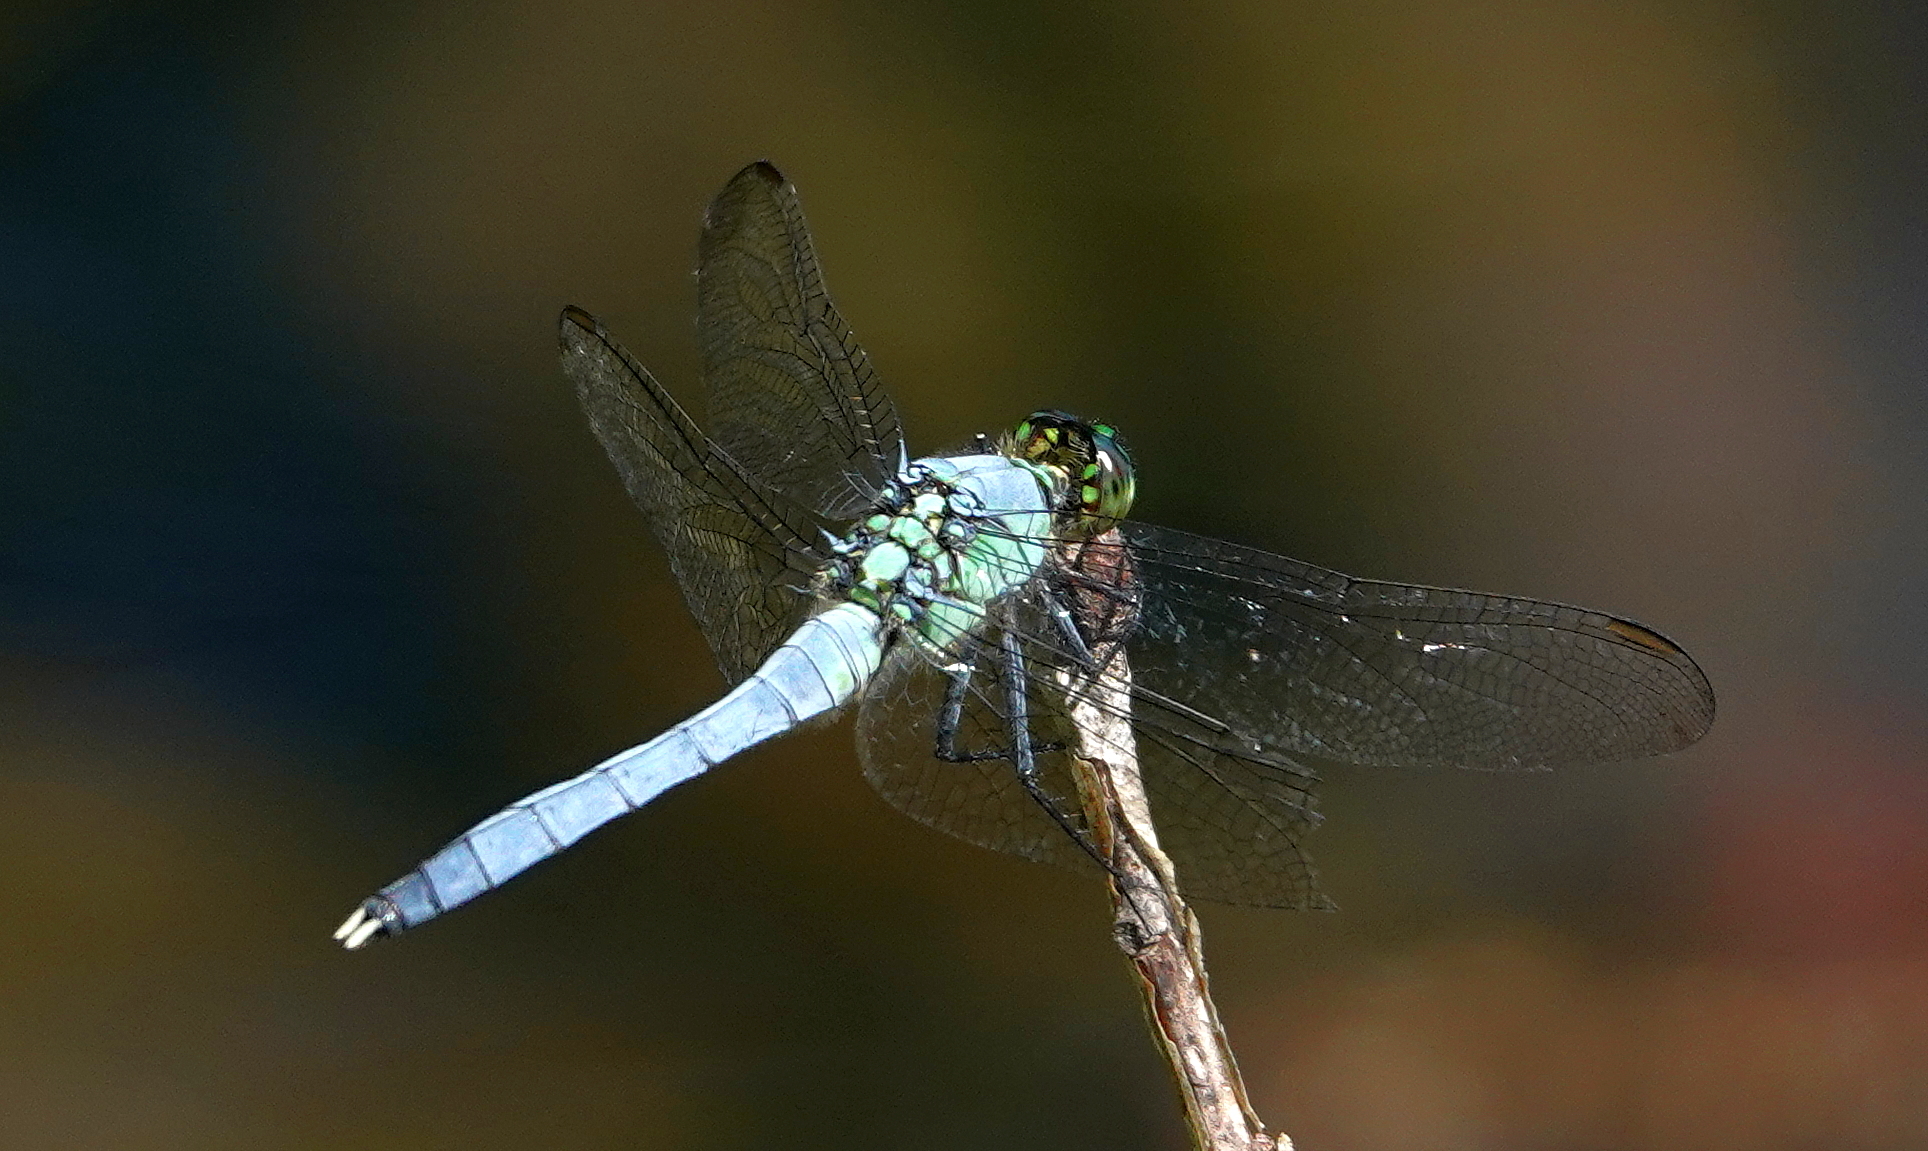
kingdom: Animalia
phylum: Arthropoda
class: Insecta
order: Odonata
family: Libellulidae
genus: Erythemis
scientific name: Erythemis simplicicollis
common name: Eastern pondhawk
